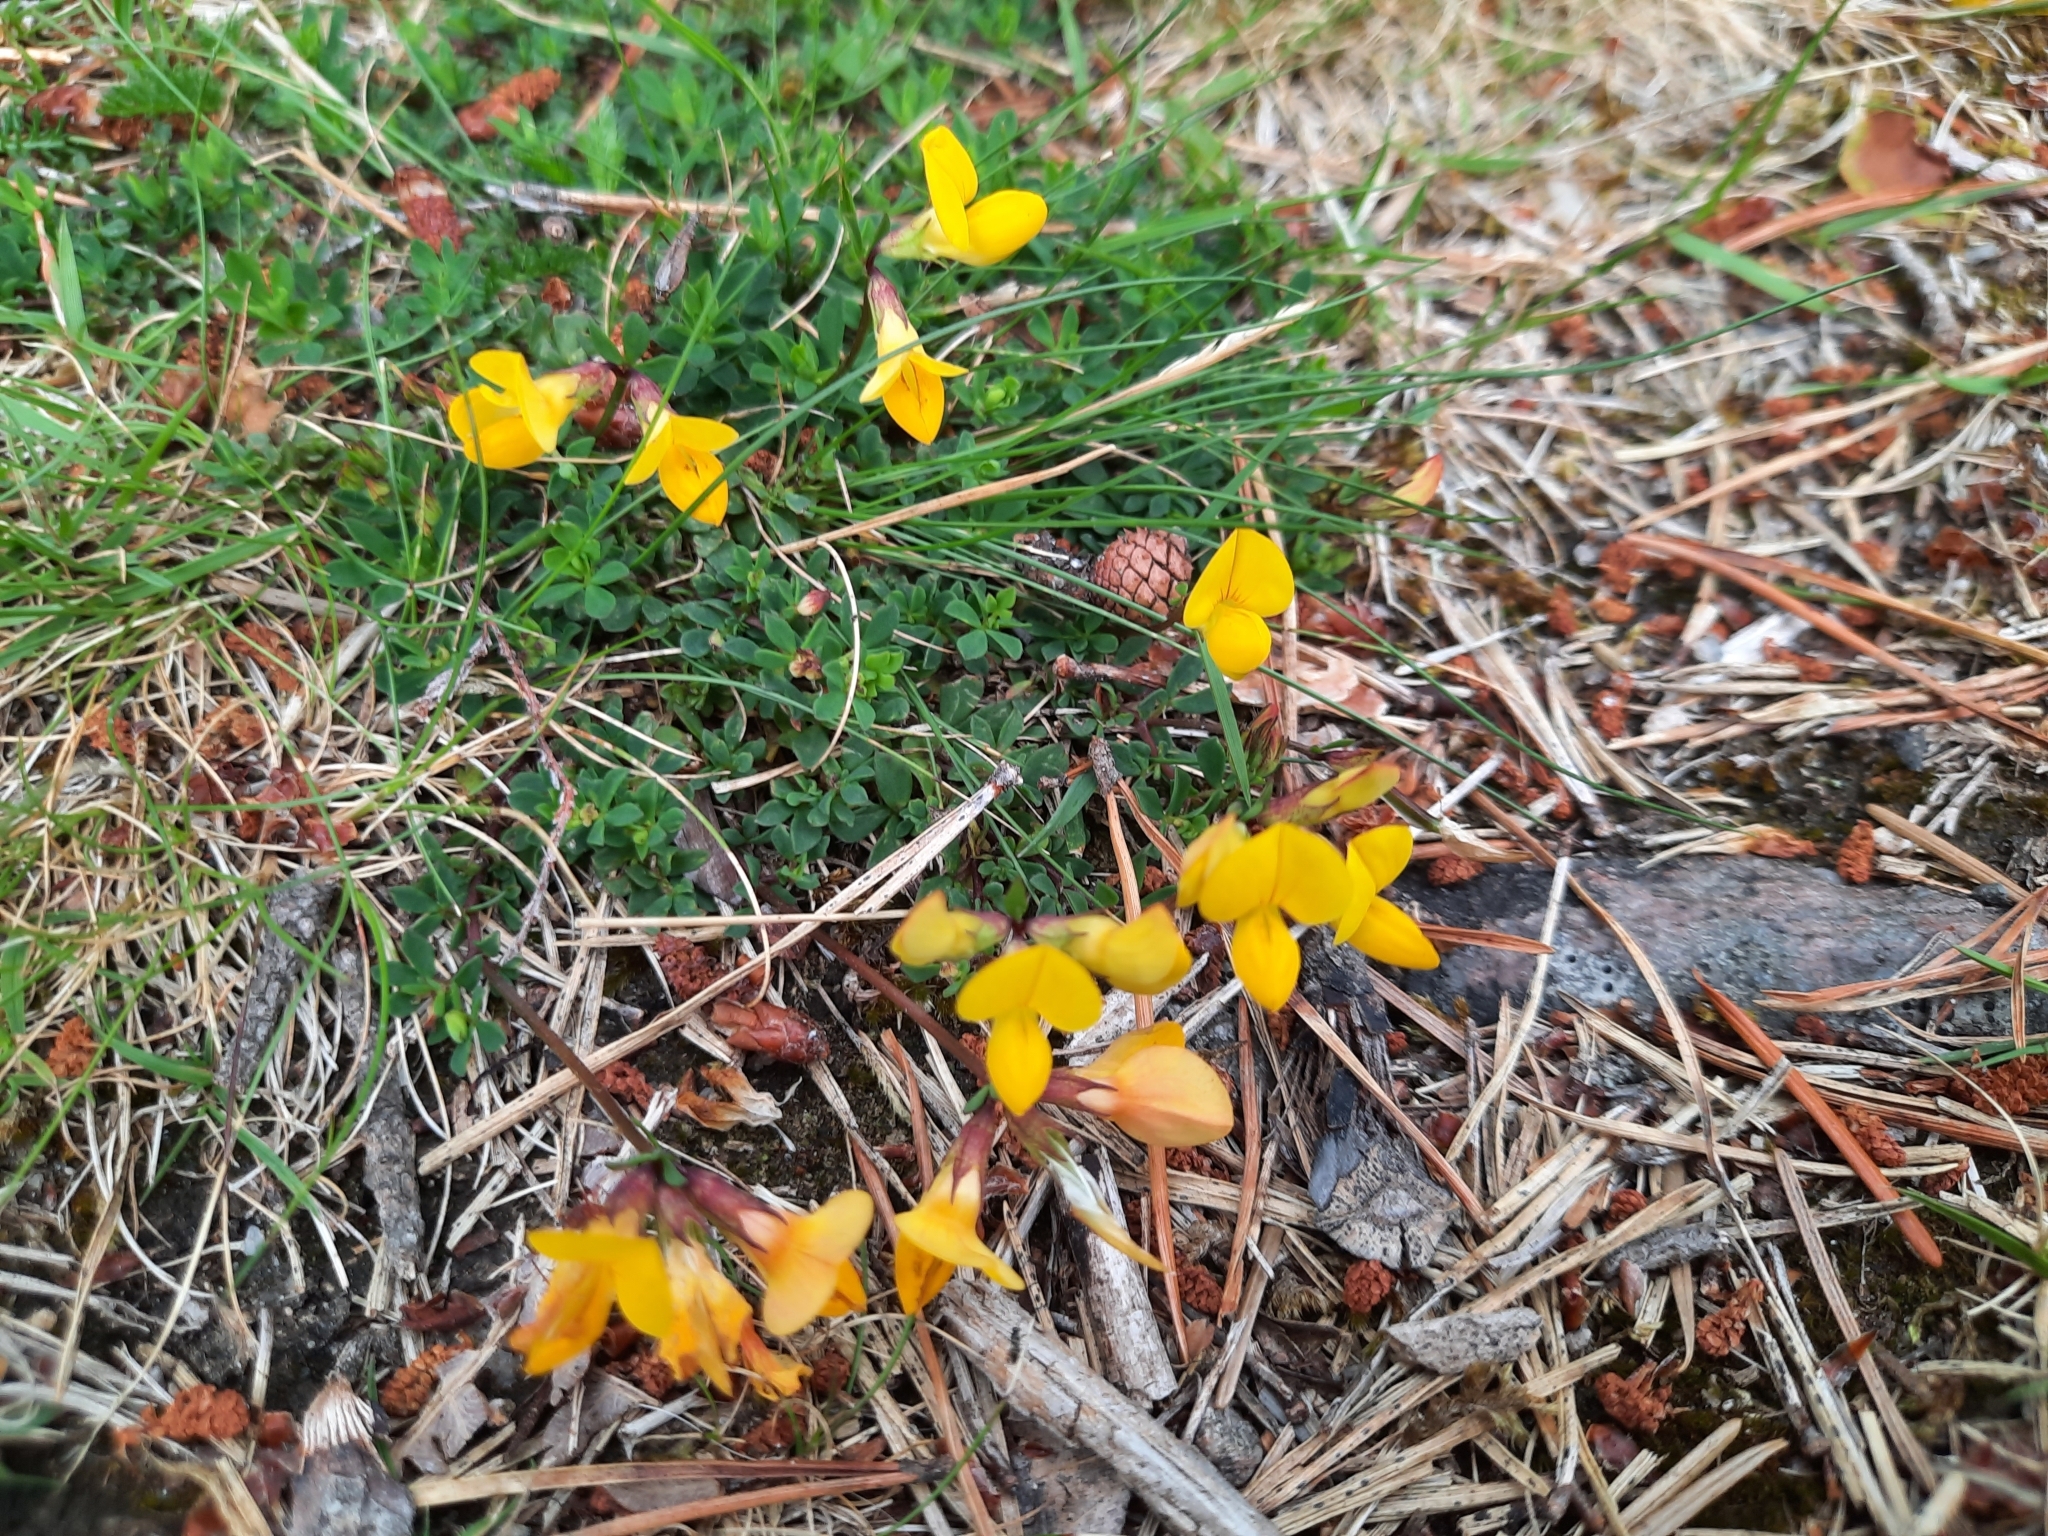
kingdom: Plantae
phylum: Tracheophyta
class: Magnoliopsida
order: Fabales
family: Fabaceae
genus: Lotus
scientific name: Lotus corniculatus
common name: Common bird's-foot-trefoil
